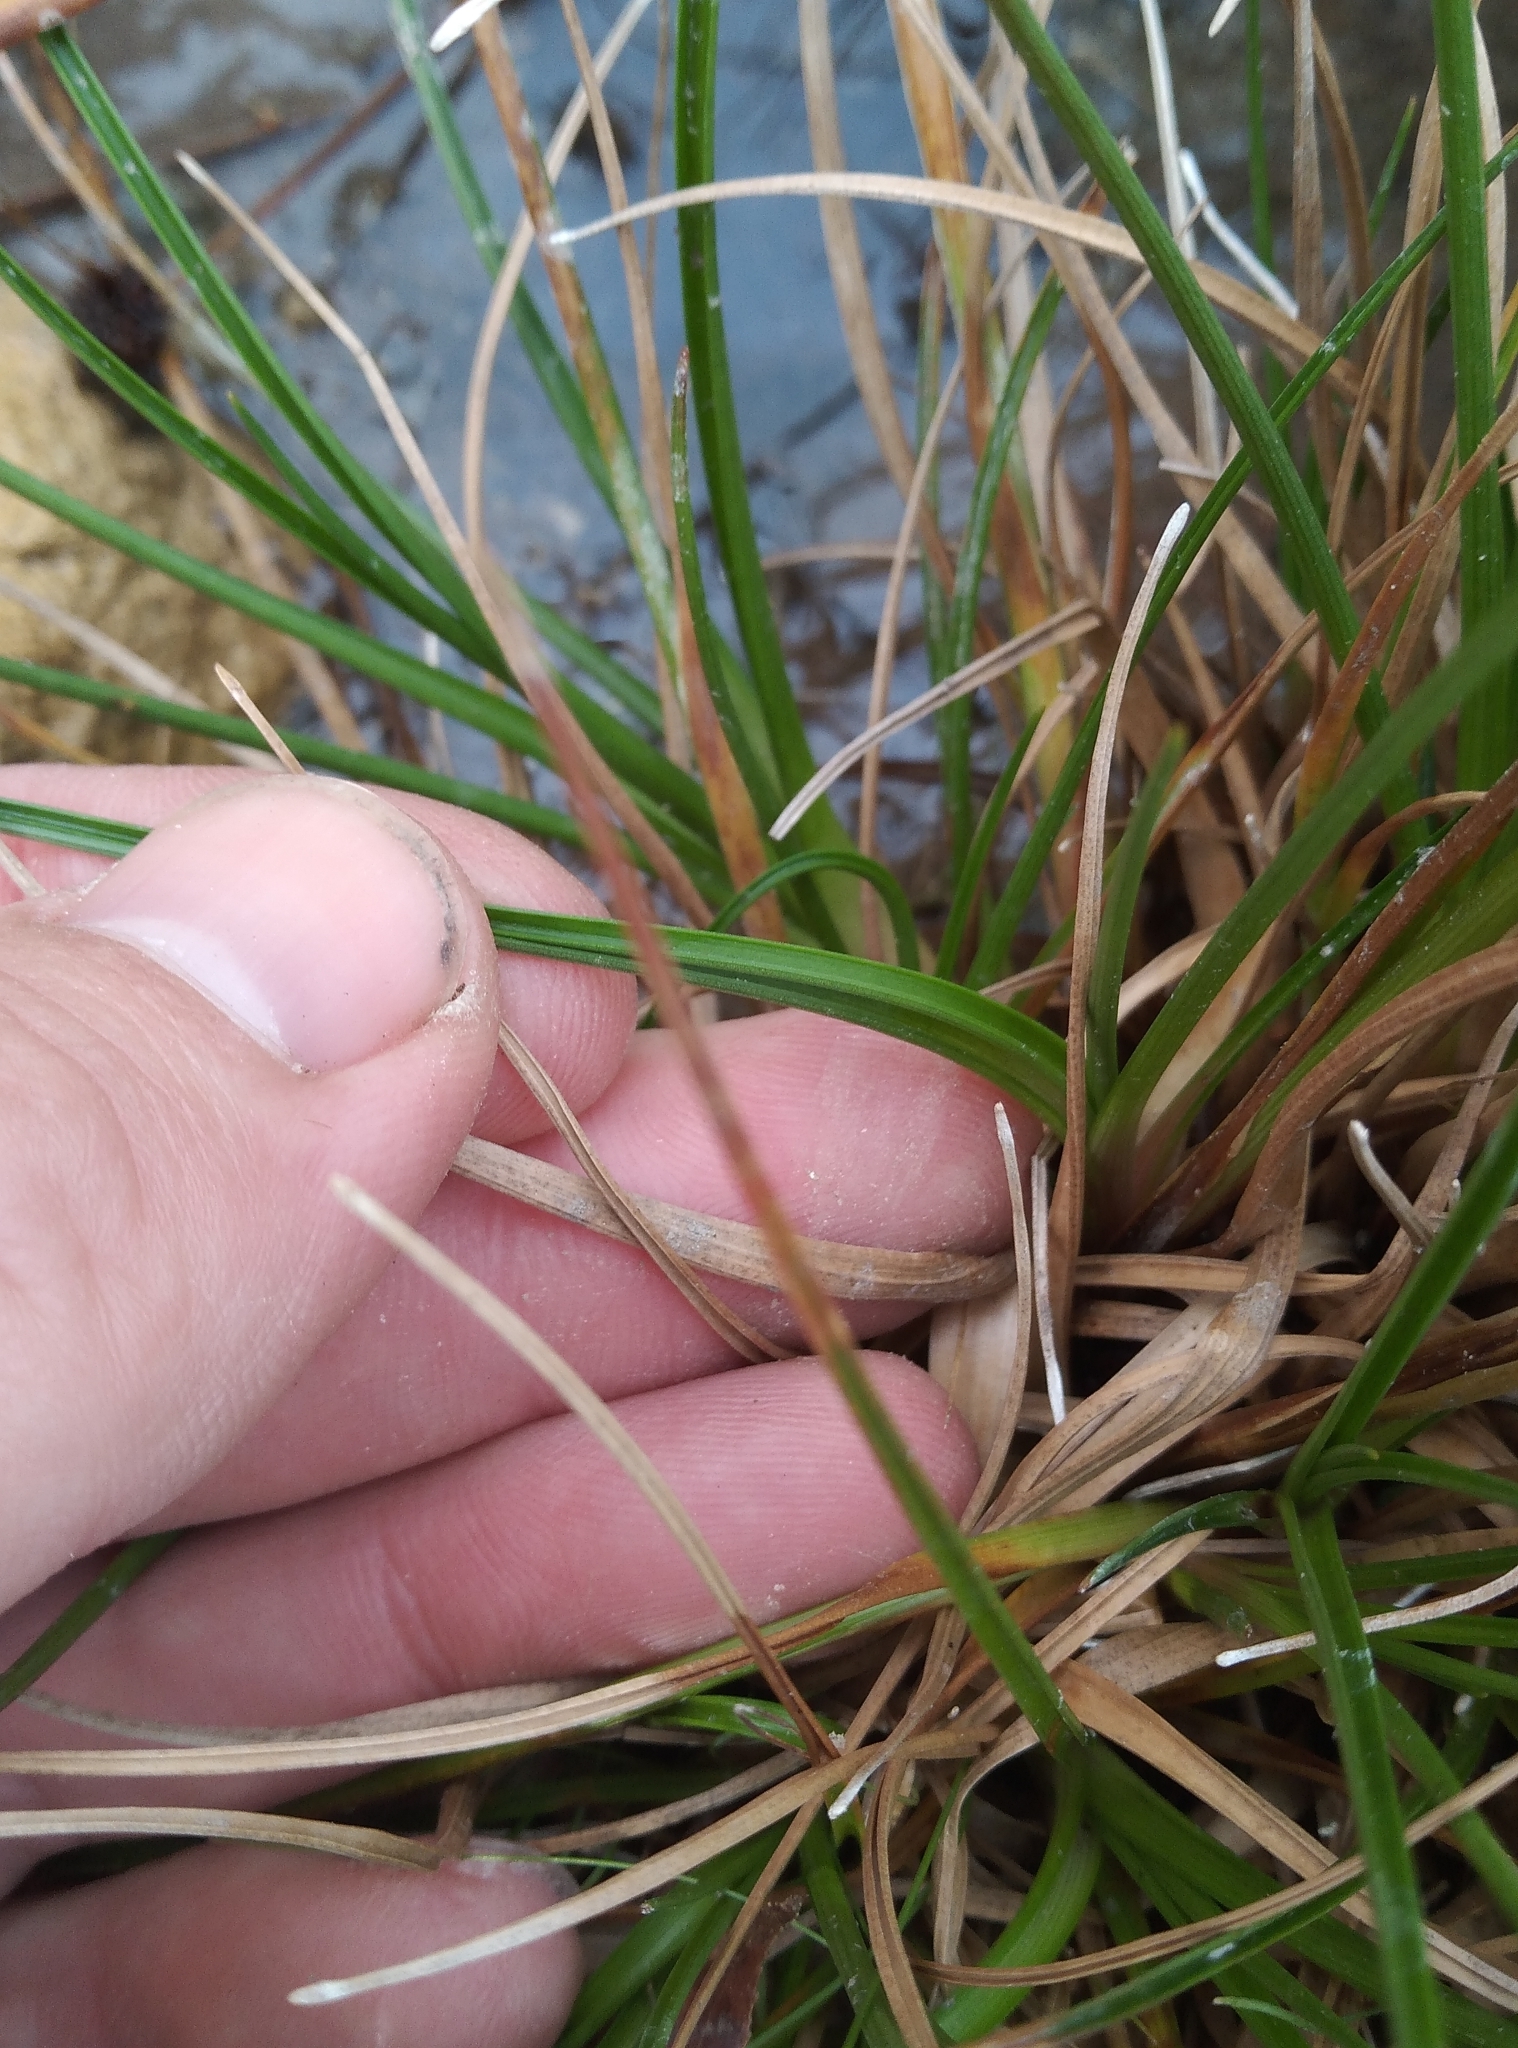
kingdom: Plantae
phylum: Tracheophyta
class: Liliopsida
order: Poales
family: Juncaceae
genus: Juncus
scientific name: Juncus caespiticius
